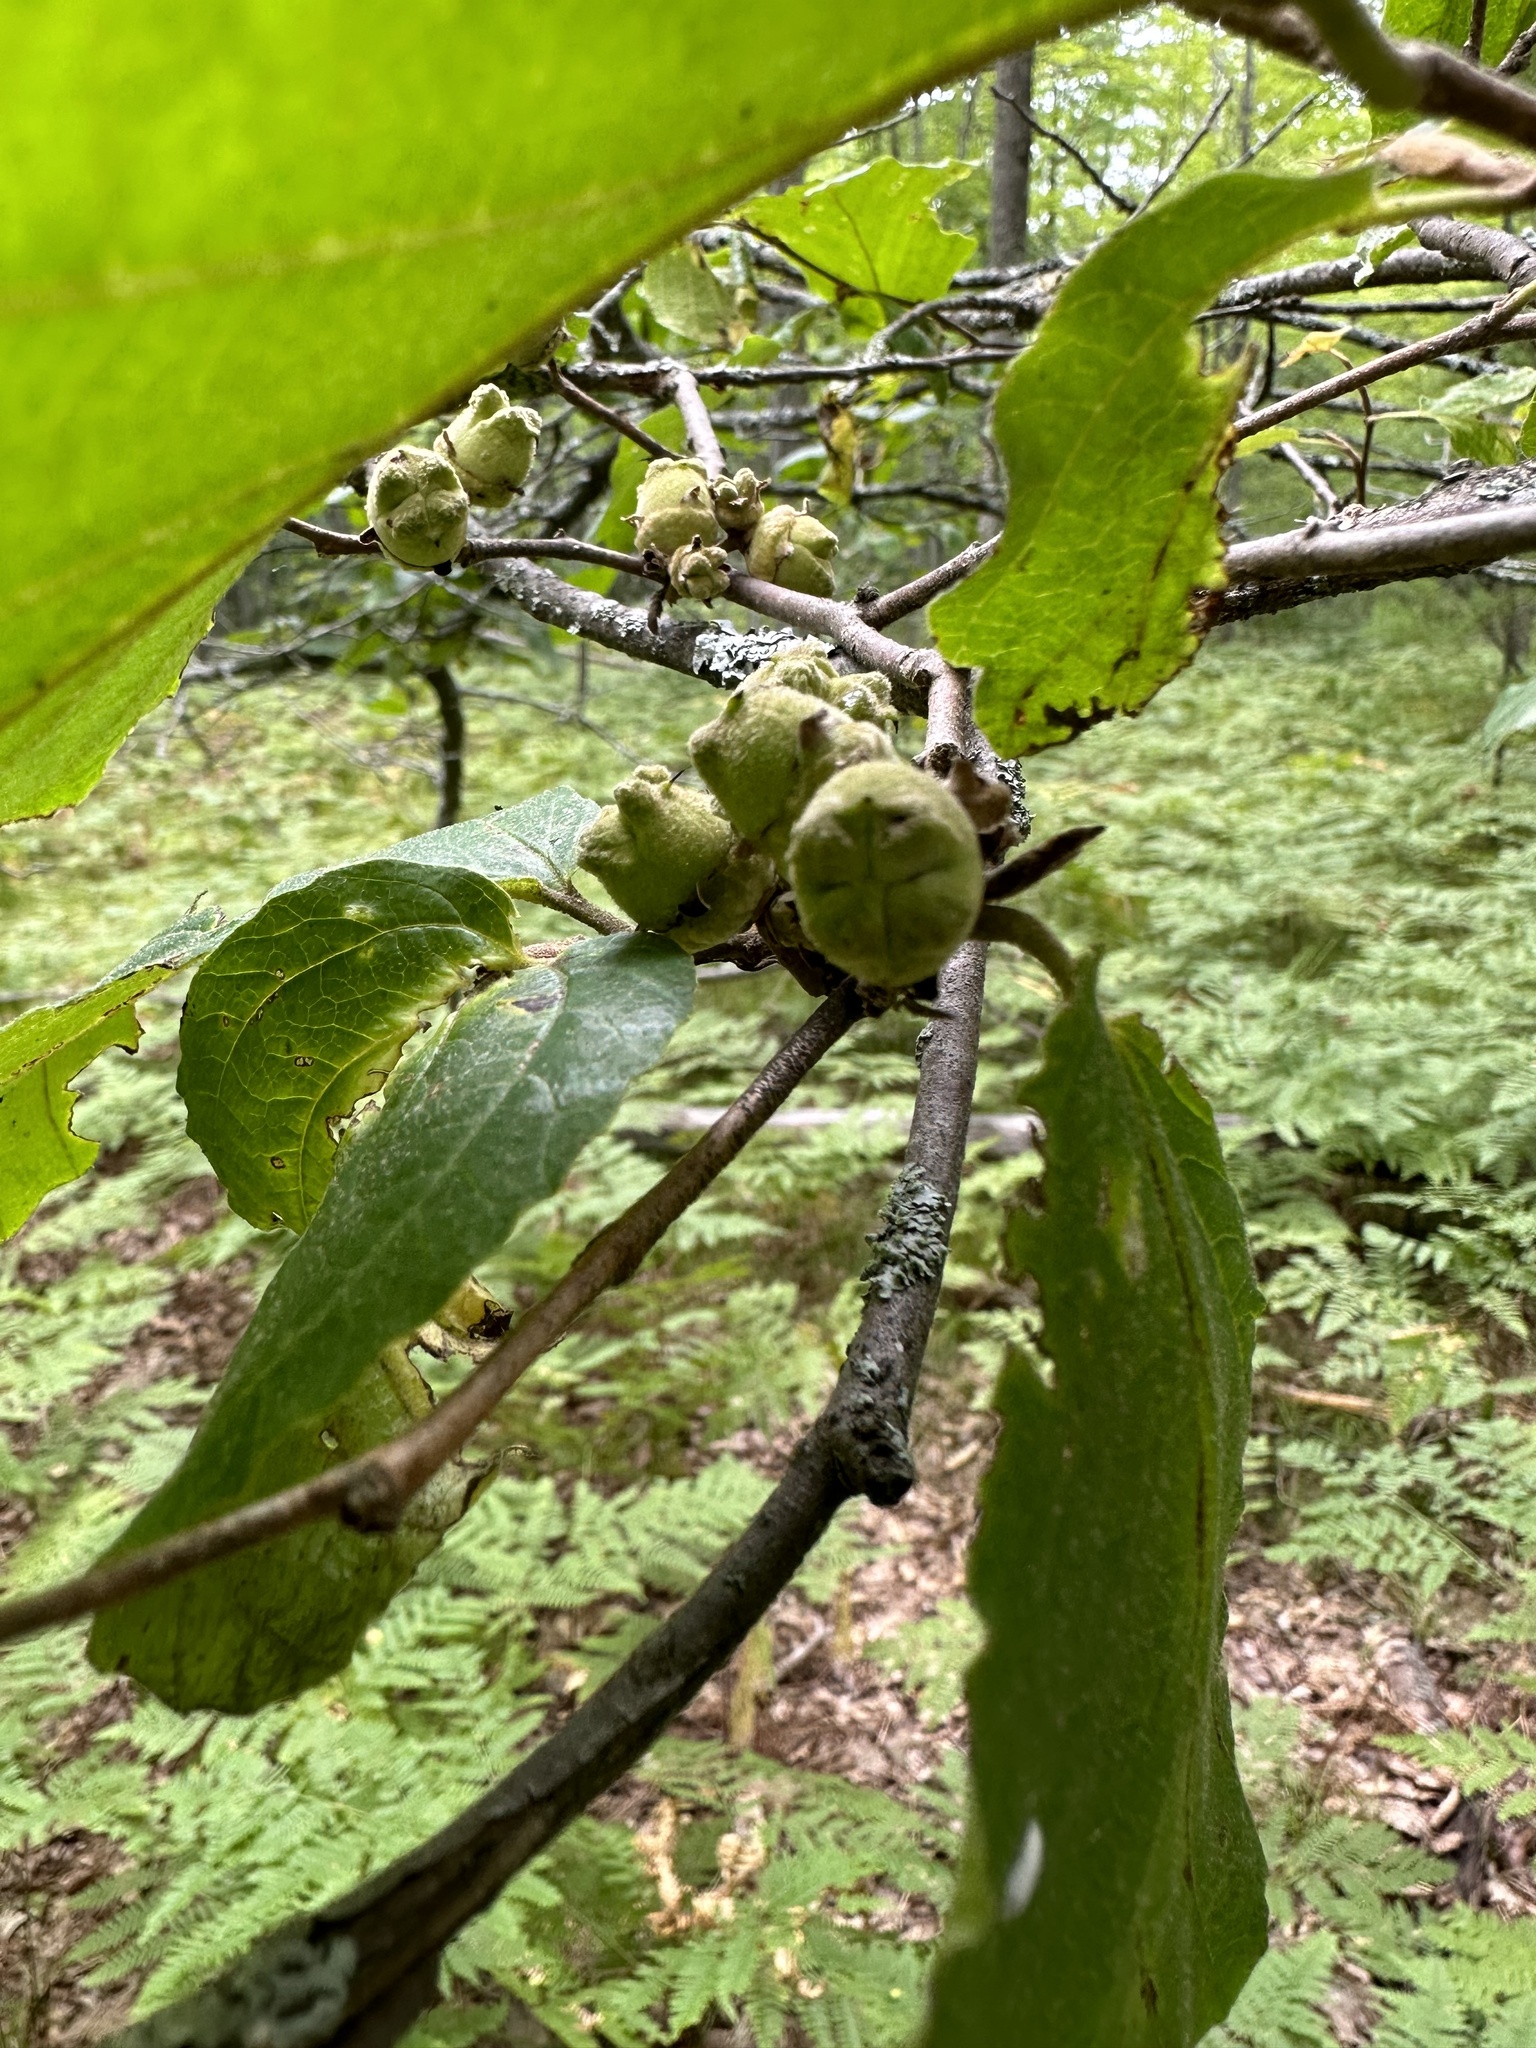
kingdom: Plantae
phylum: Tracheophyta
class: Magnoliopsida
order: Saxifragales
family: Hamamelidaceae
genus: Hamamelis
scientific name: Hamamelis virginiana
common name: Witch-hazel
